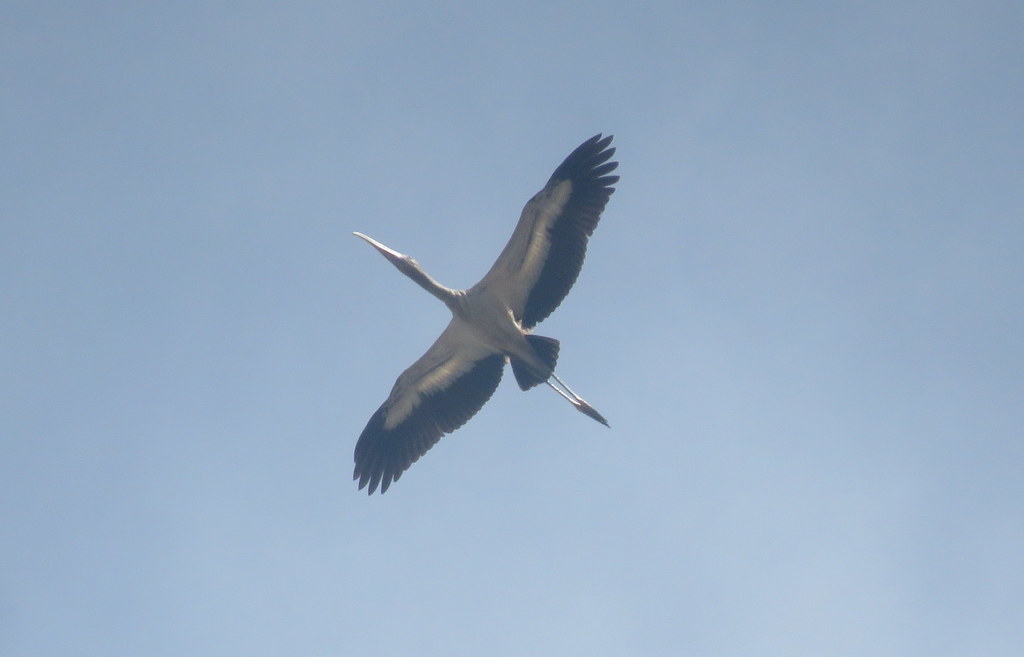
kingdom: Animalia
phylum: Chordata
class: Aves
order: Ciconiiformes
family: Ciconiidae
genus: Mycteria
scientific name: Mycteria americana
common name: Wood stork
